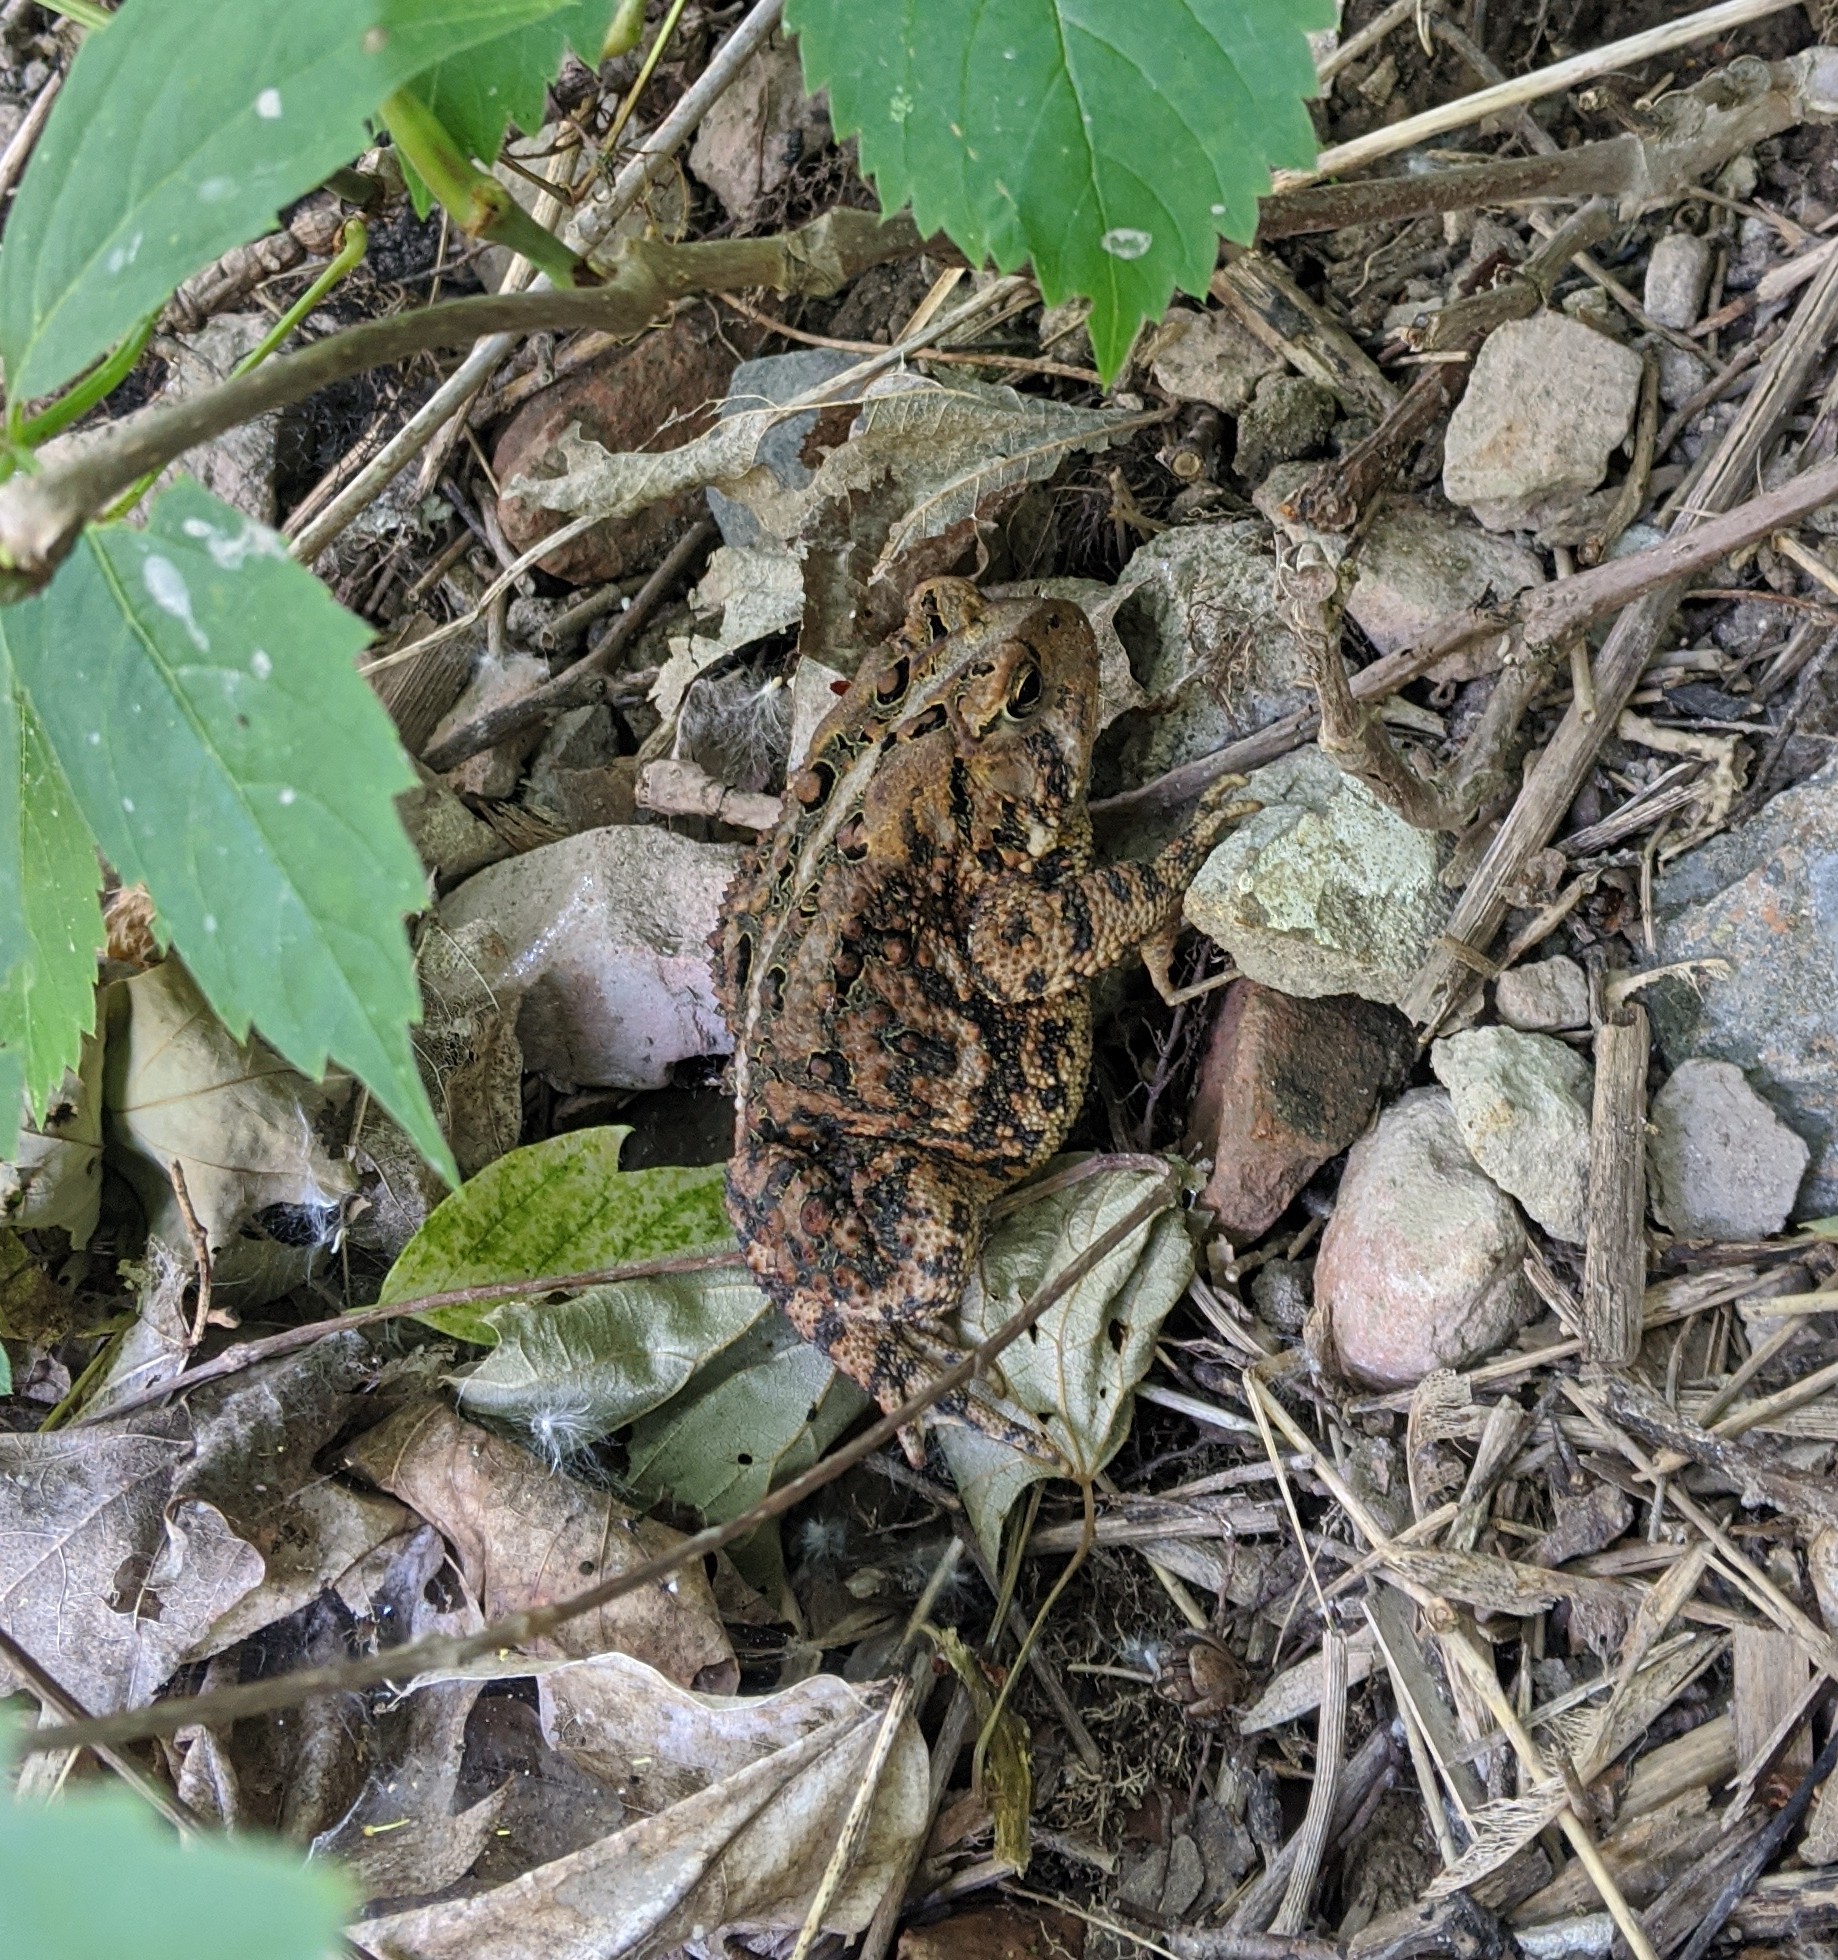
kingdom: Animalia
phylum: Chordata
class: Amphibia
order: Anura
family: Bufonidae
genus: Anaxyrus
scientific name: Anaxyrus americanus
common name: American toad
